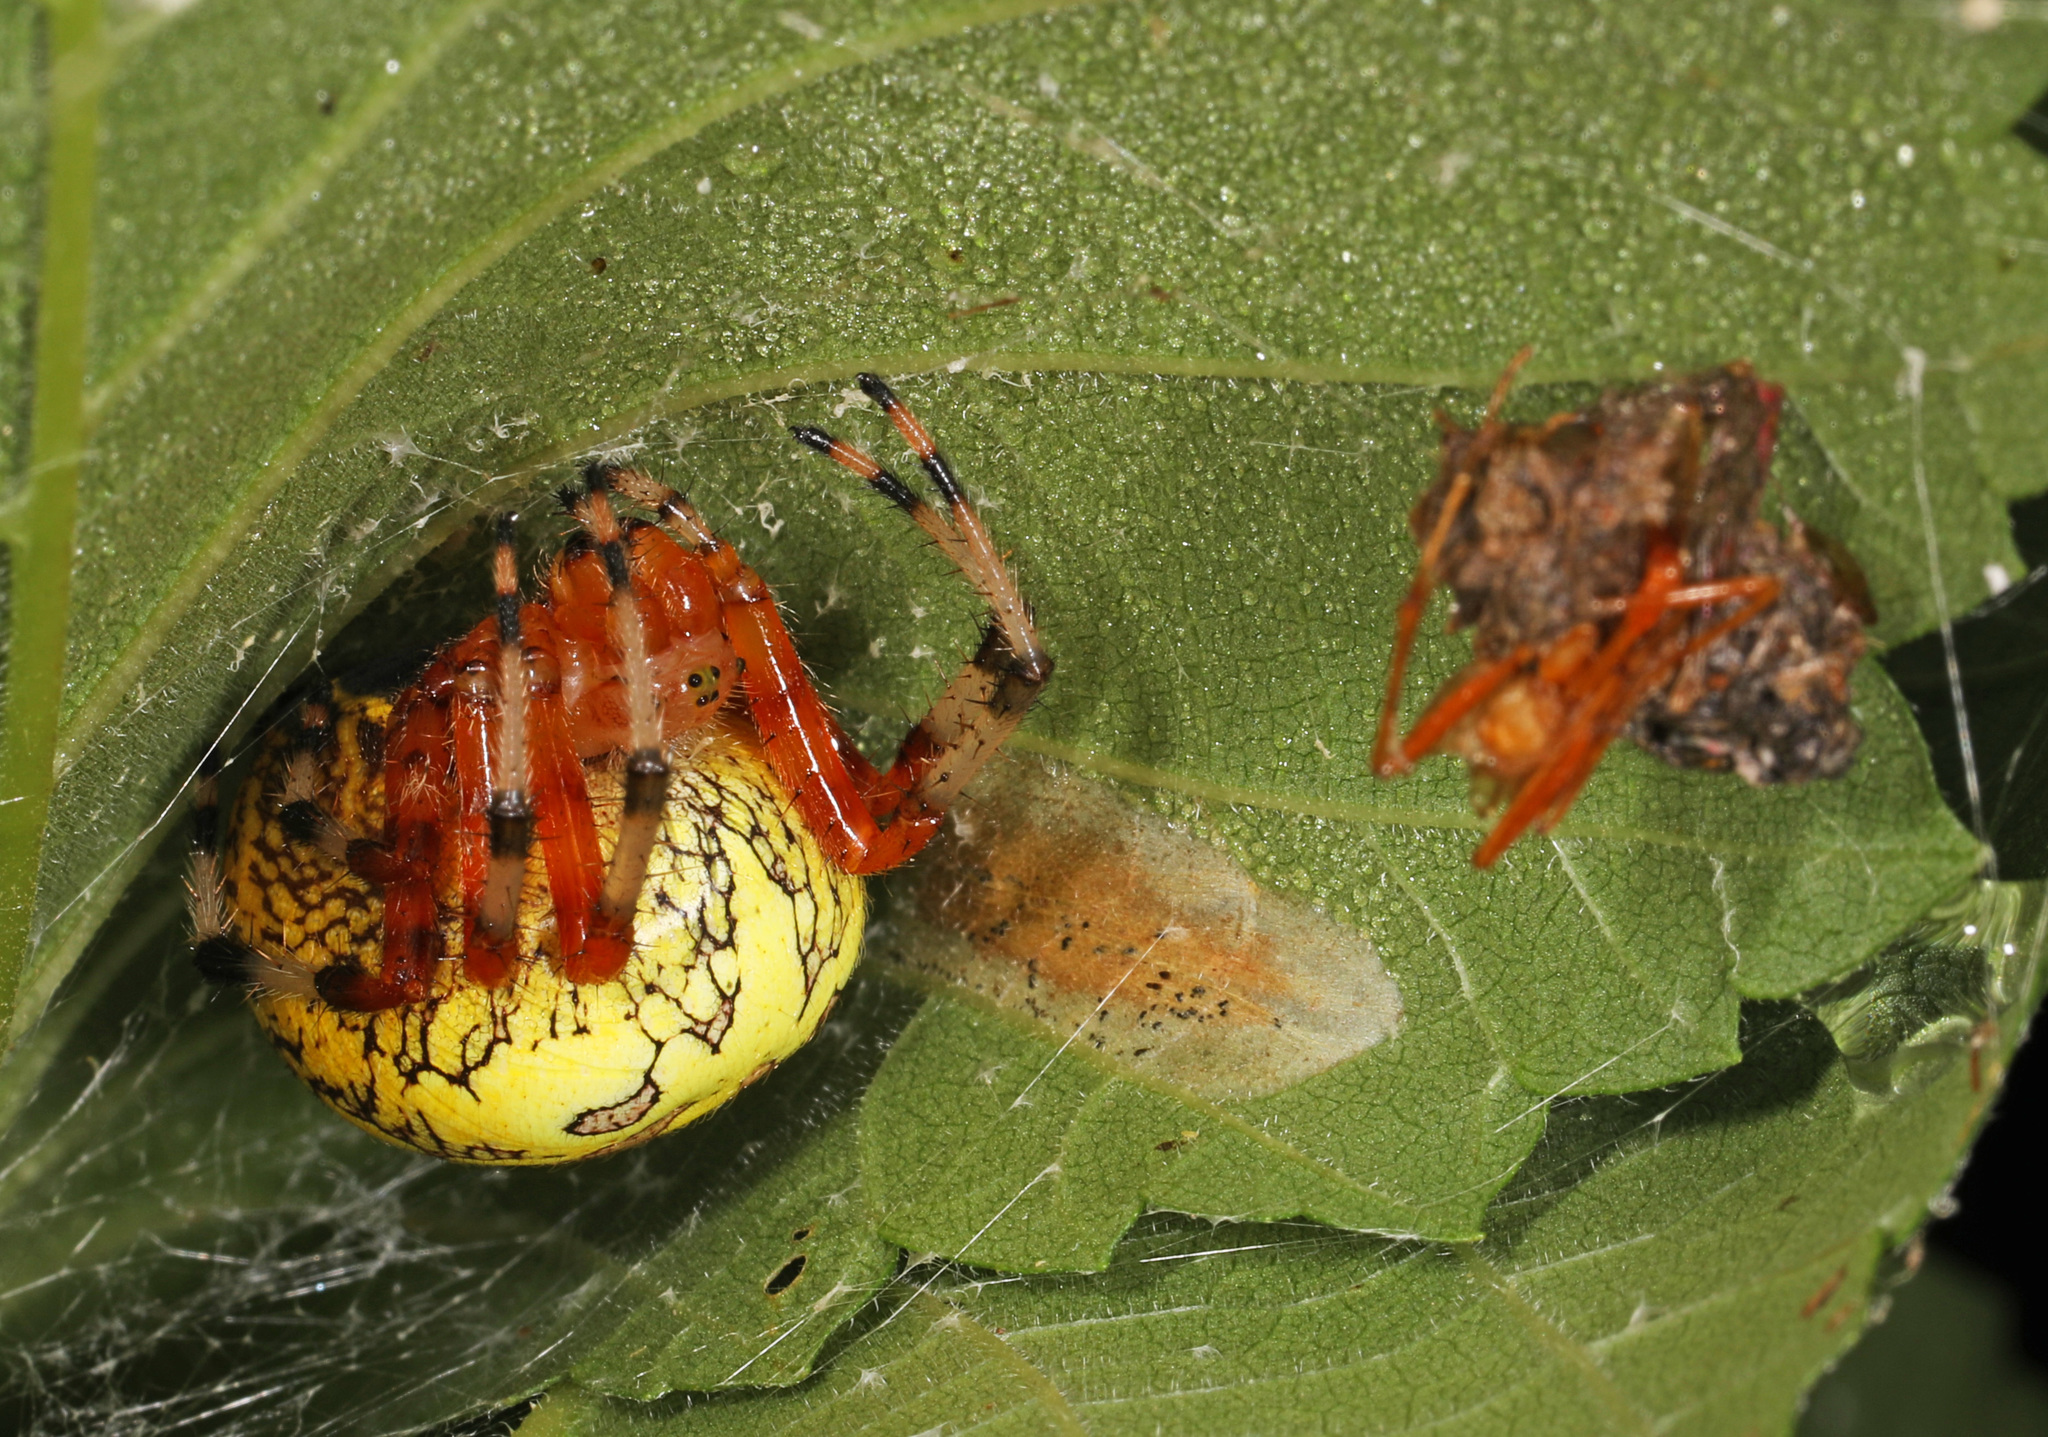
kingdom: Animalia
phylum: Arthropoda
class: Arachnida
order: Araneae
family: Araneidae
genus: Araneus
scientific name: Araneus marmoreus
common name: Marbled orbweaver
